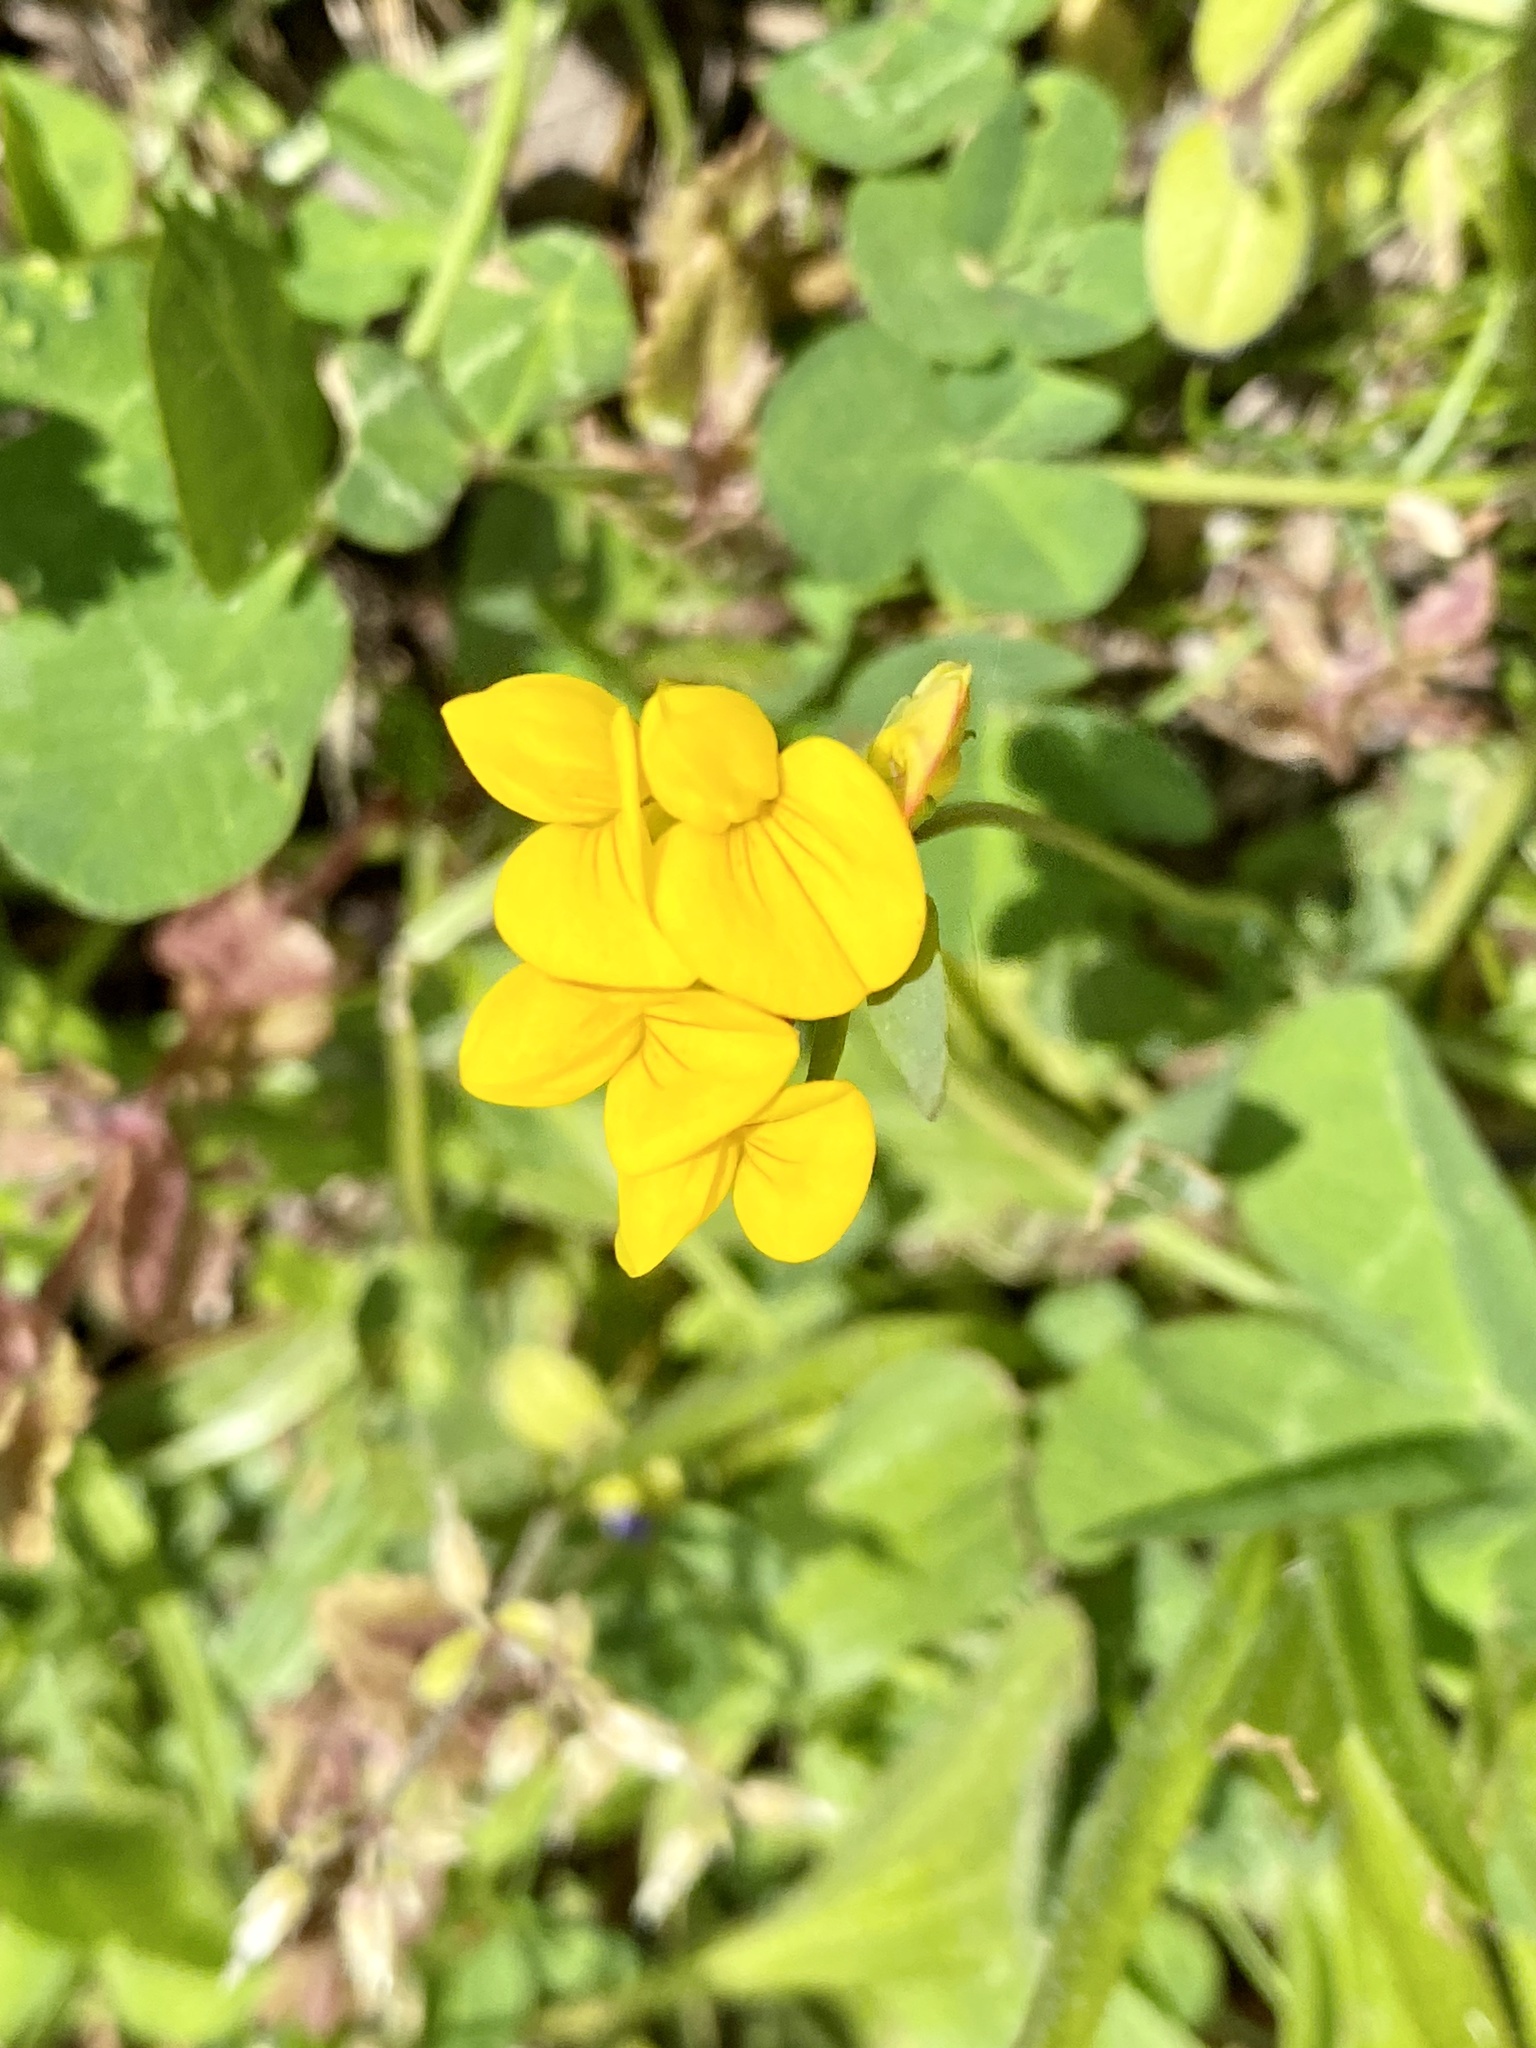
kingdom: Plantae
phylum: Tracheophyta
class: Magnoliopsida
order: Fabales
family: Fabaceae
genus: Lotus
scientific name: Lotus corniculatus
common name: Common bird's-foot-trefoil
